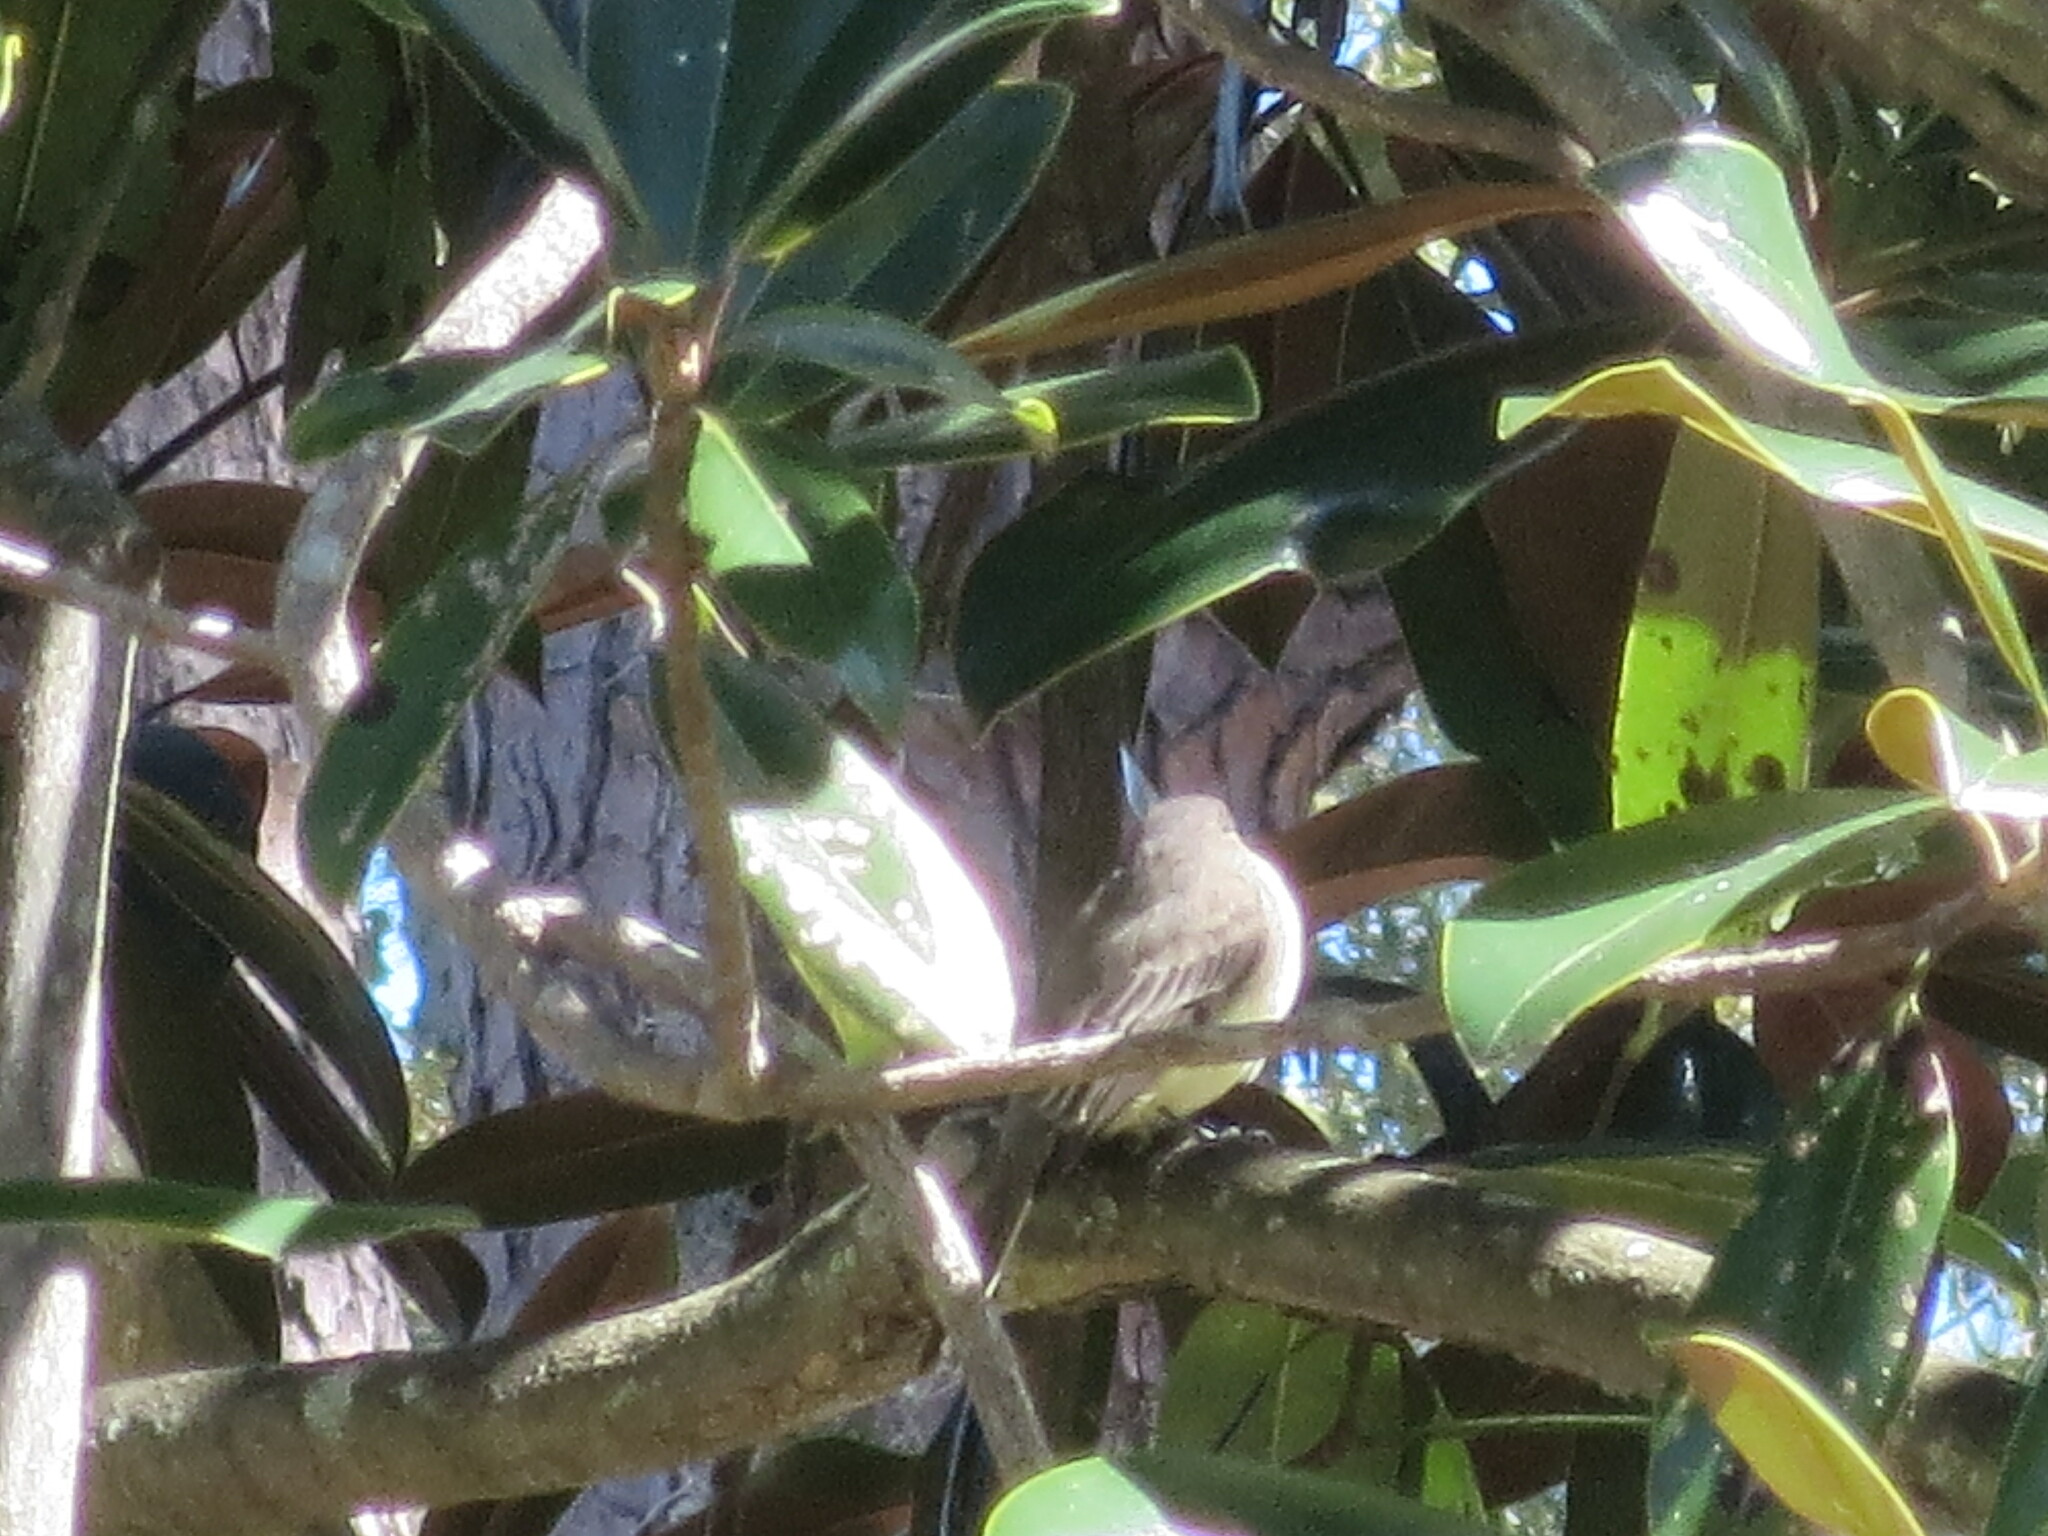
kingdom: Animalia
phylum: Chordata
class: Aves
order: Passeriformes
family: Tyrannidae
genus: Sayornis
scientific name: Sayornis phoebe
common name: Eastern phoebe
